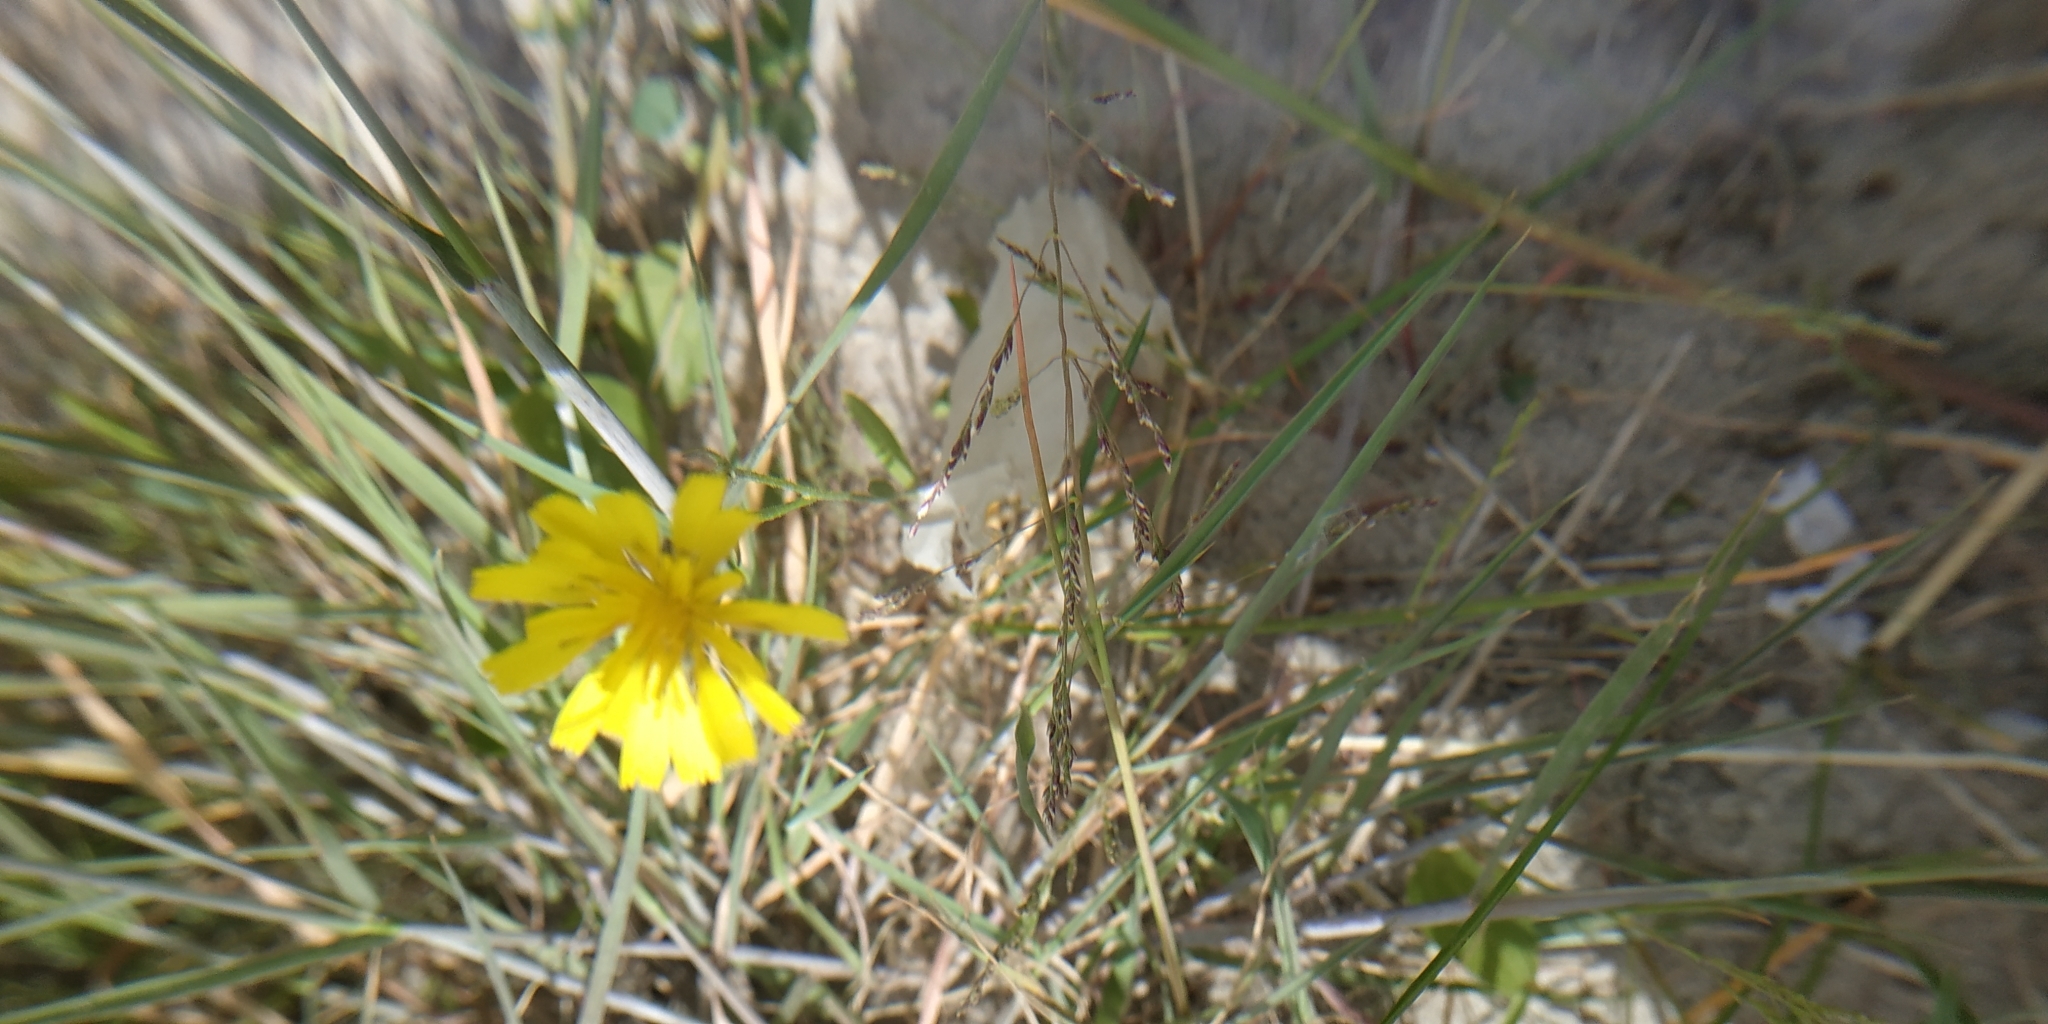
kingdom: Plantae
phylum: Tracheophyta
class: Magnoliopsida
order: Asterales
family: Asteraceae
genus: Crepis
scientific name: Crepis tectorum
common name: Narrow-leaved hawk's-beard
